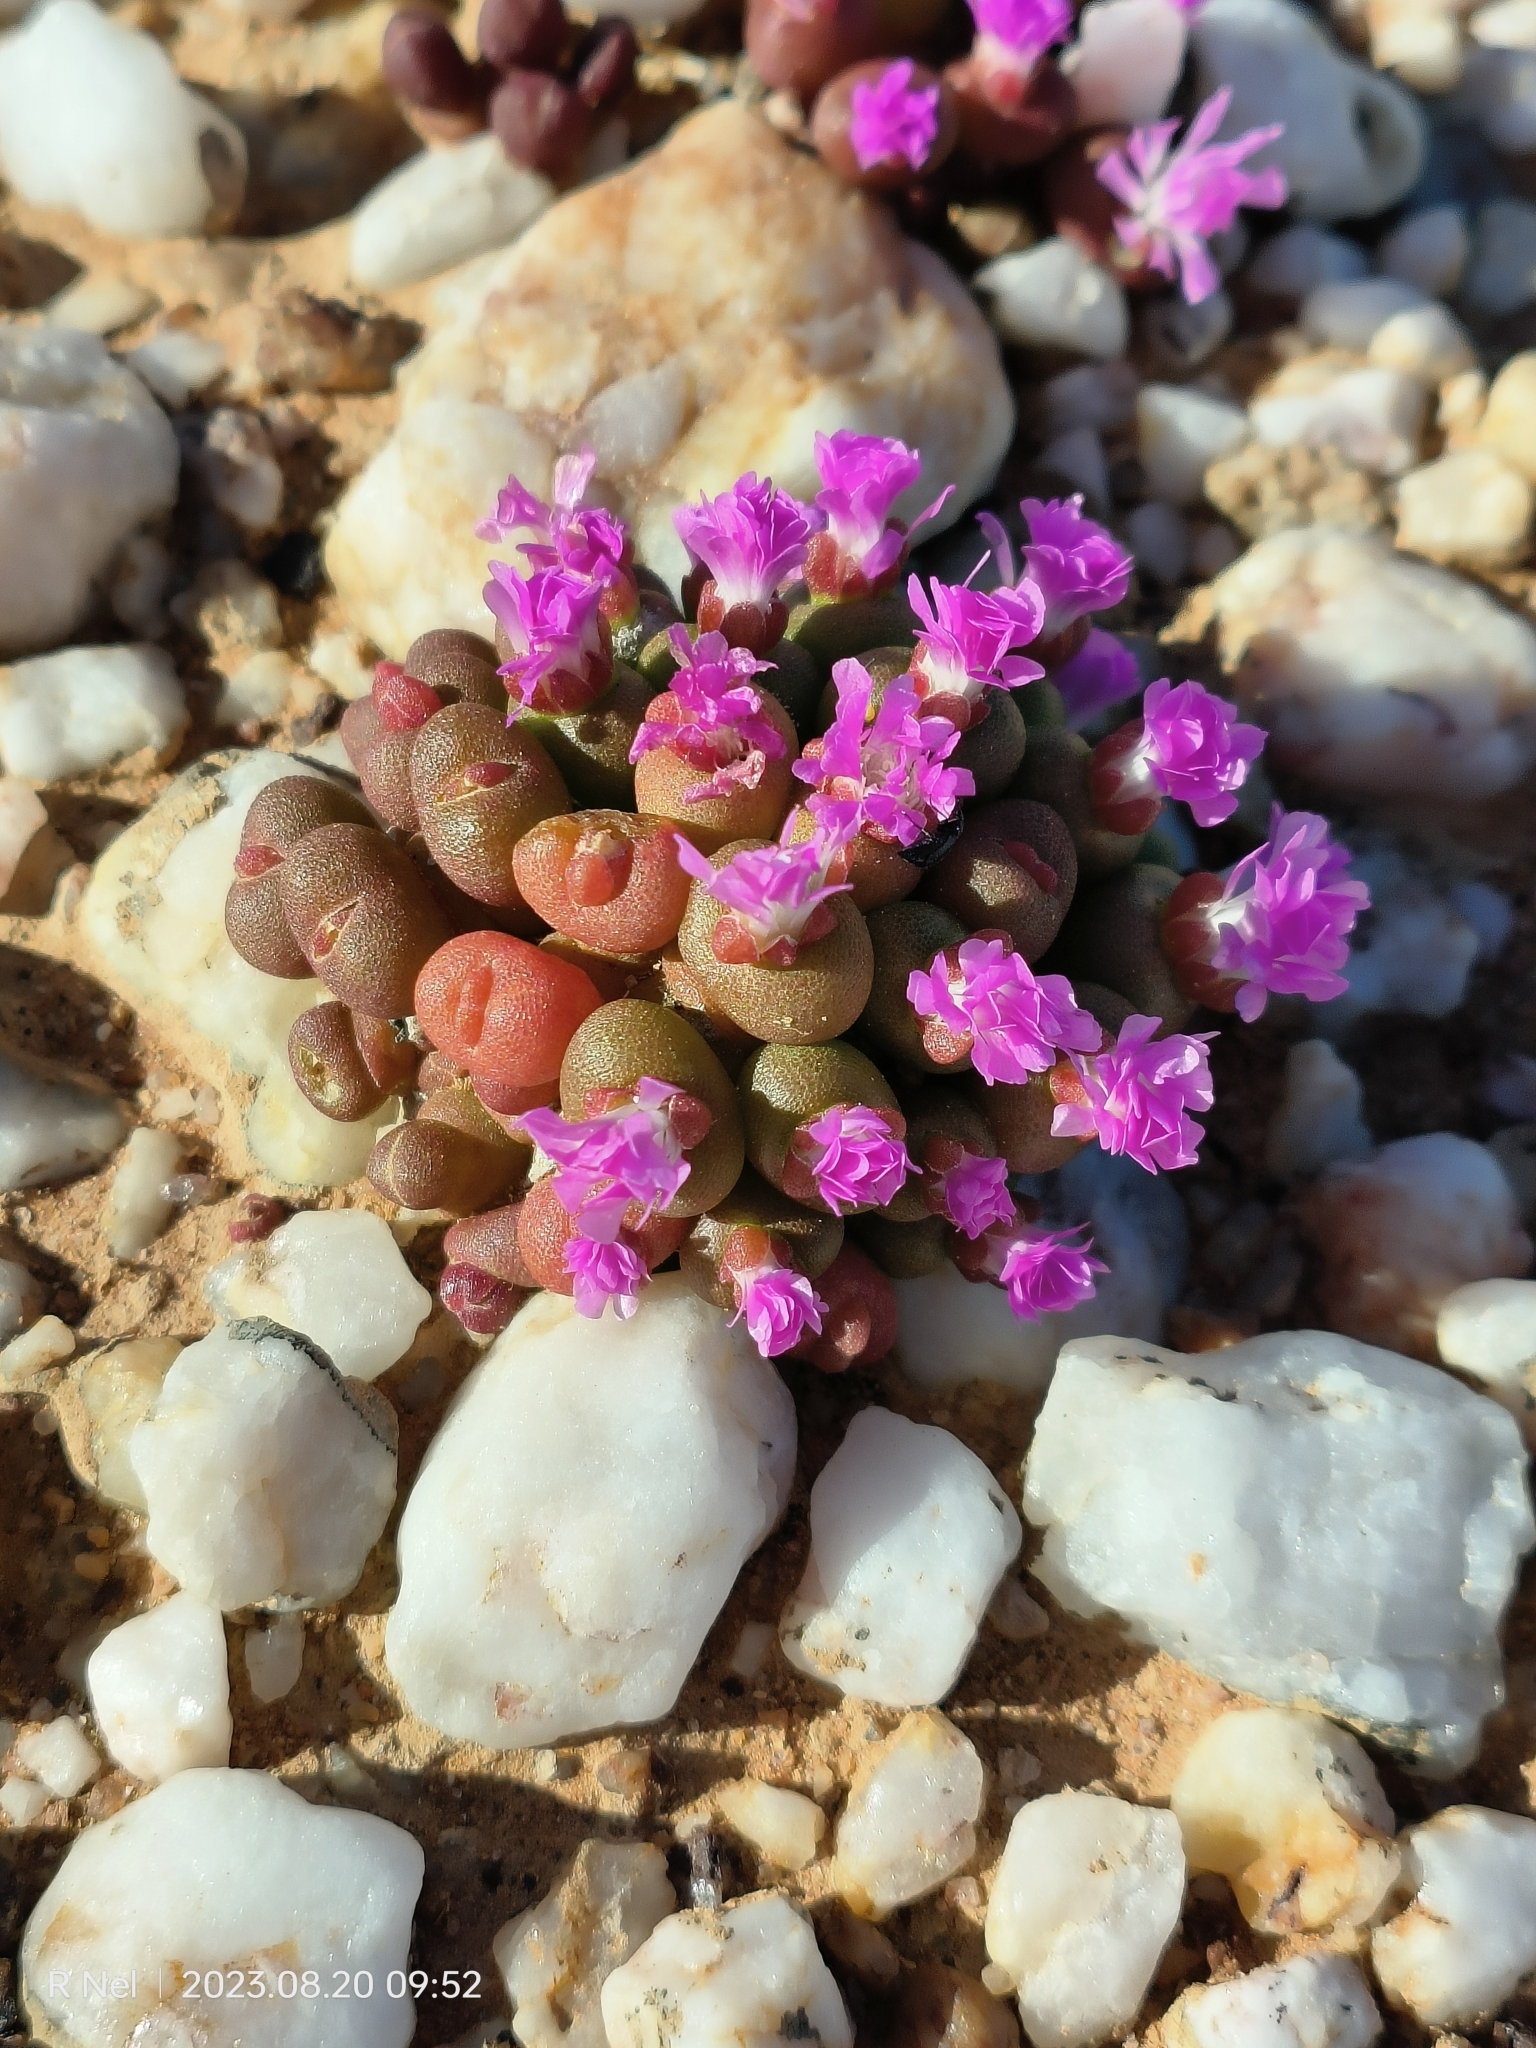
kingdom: Plantae
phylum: Tracheophyta
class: Magnoliopsida
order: Caryophyllales
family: Aizoaceae
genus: Oophytum
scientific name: Oophytum nanum
